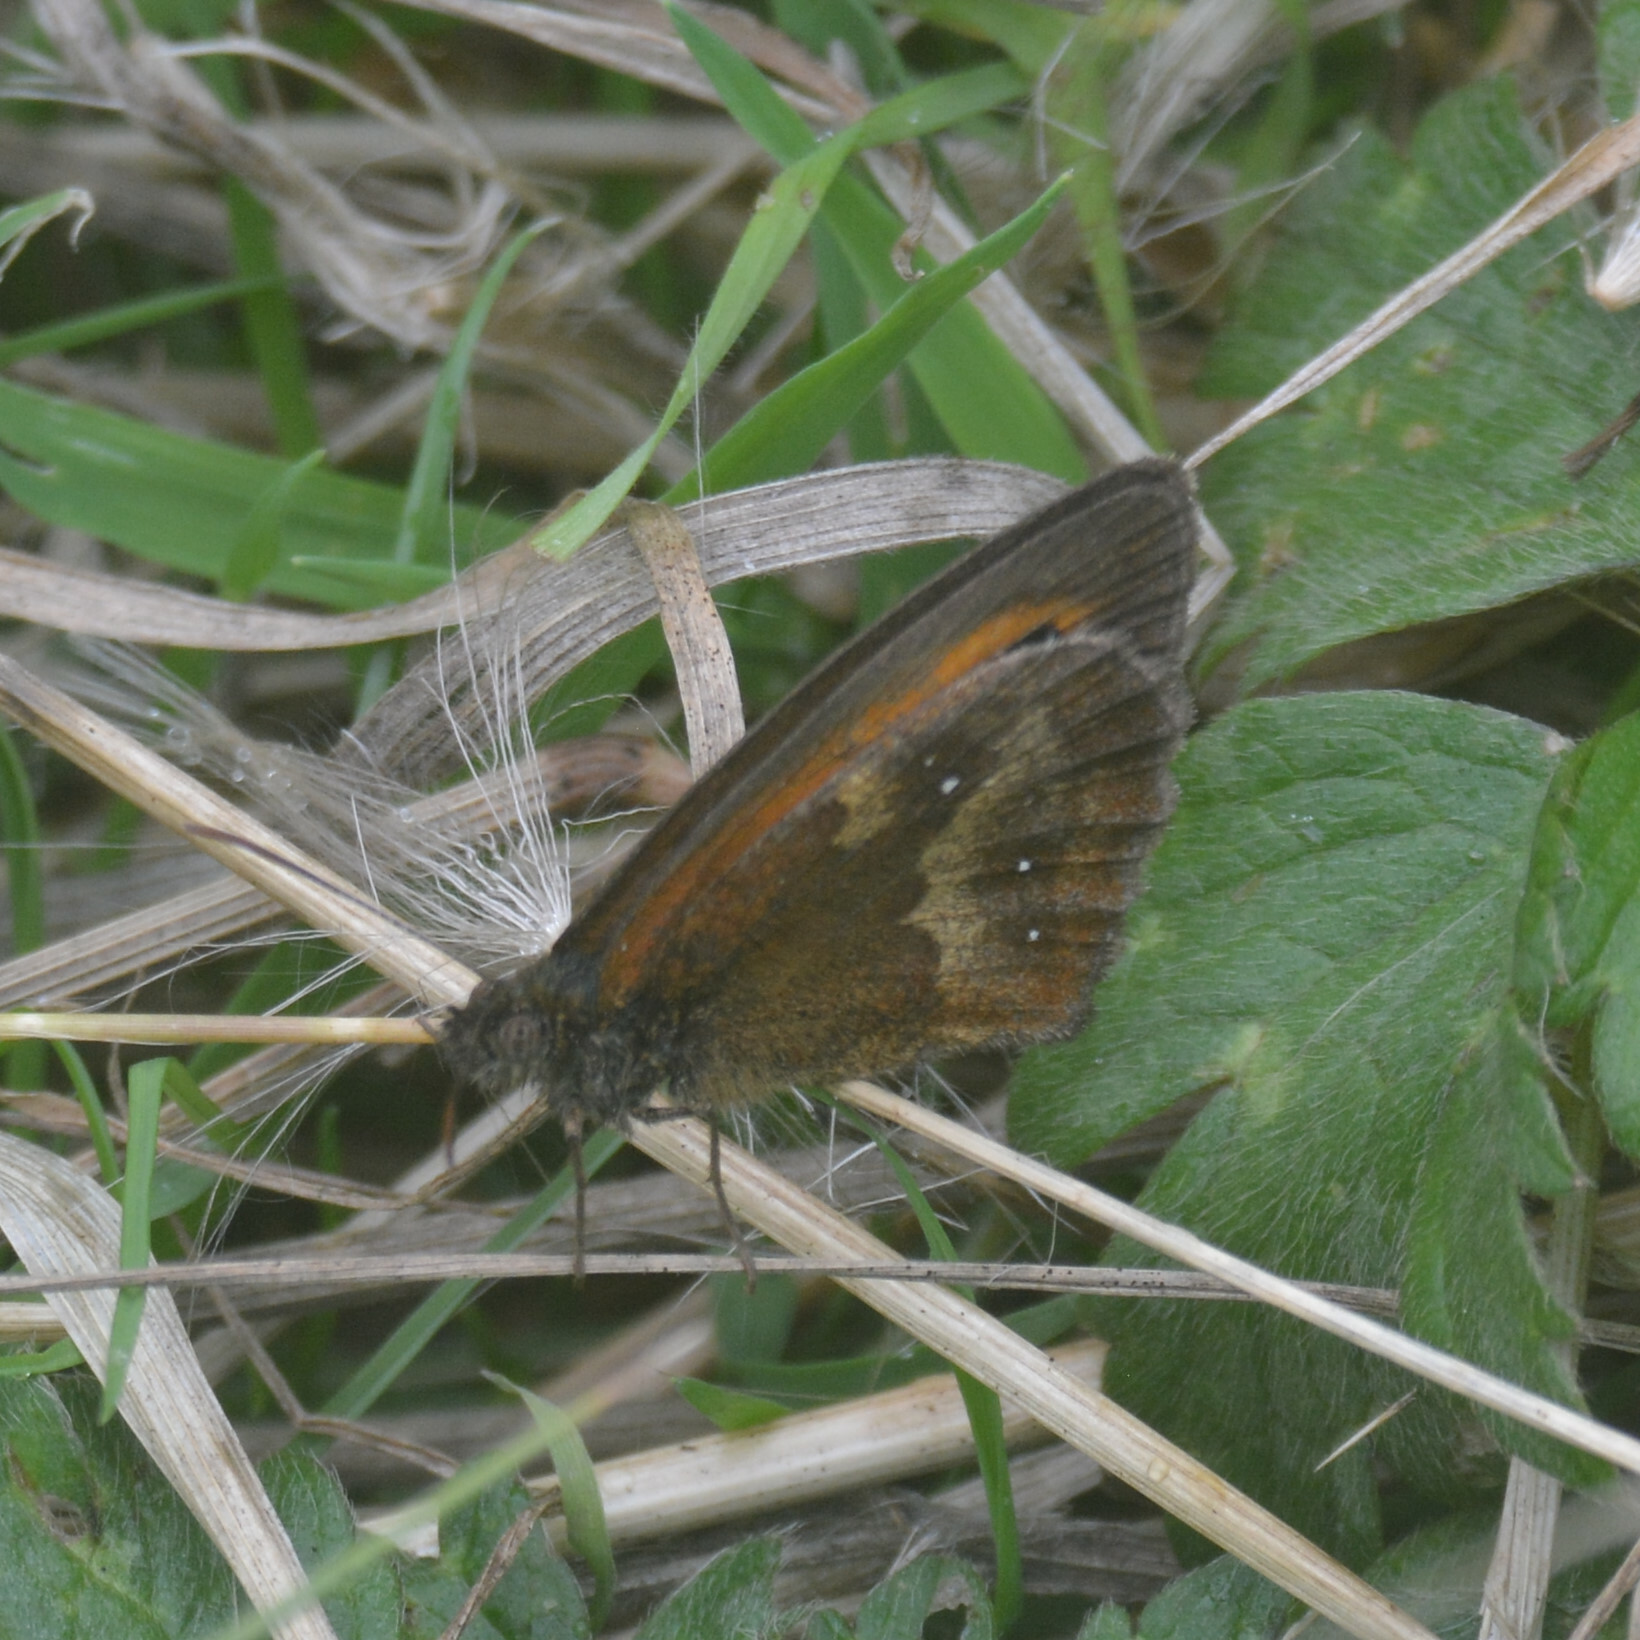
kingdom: Animalia
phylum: Arthropoda
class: Insecta
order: Lepidoptera
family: Nymphalidae
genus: Pyronia
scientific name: Pyronia tithonus
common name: Gatekeeper
